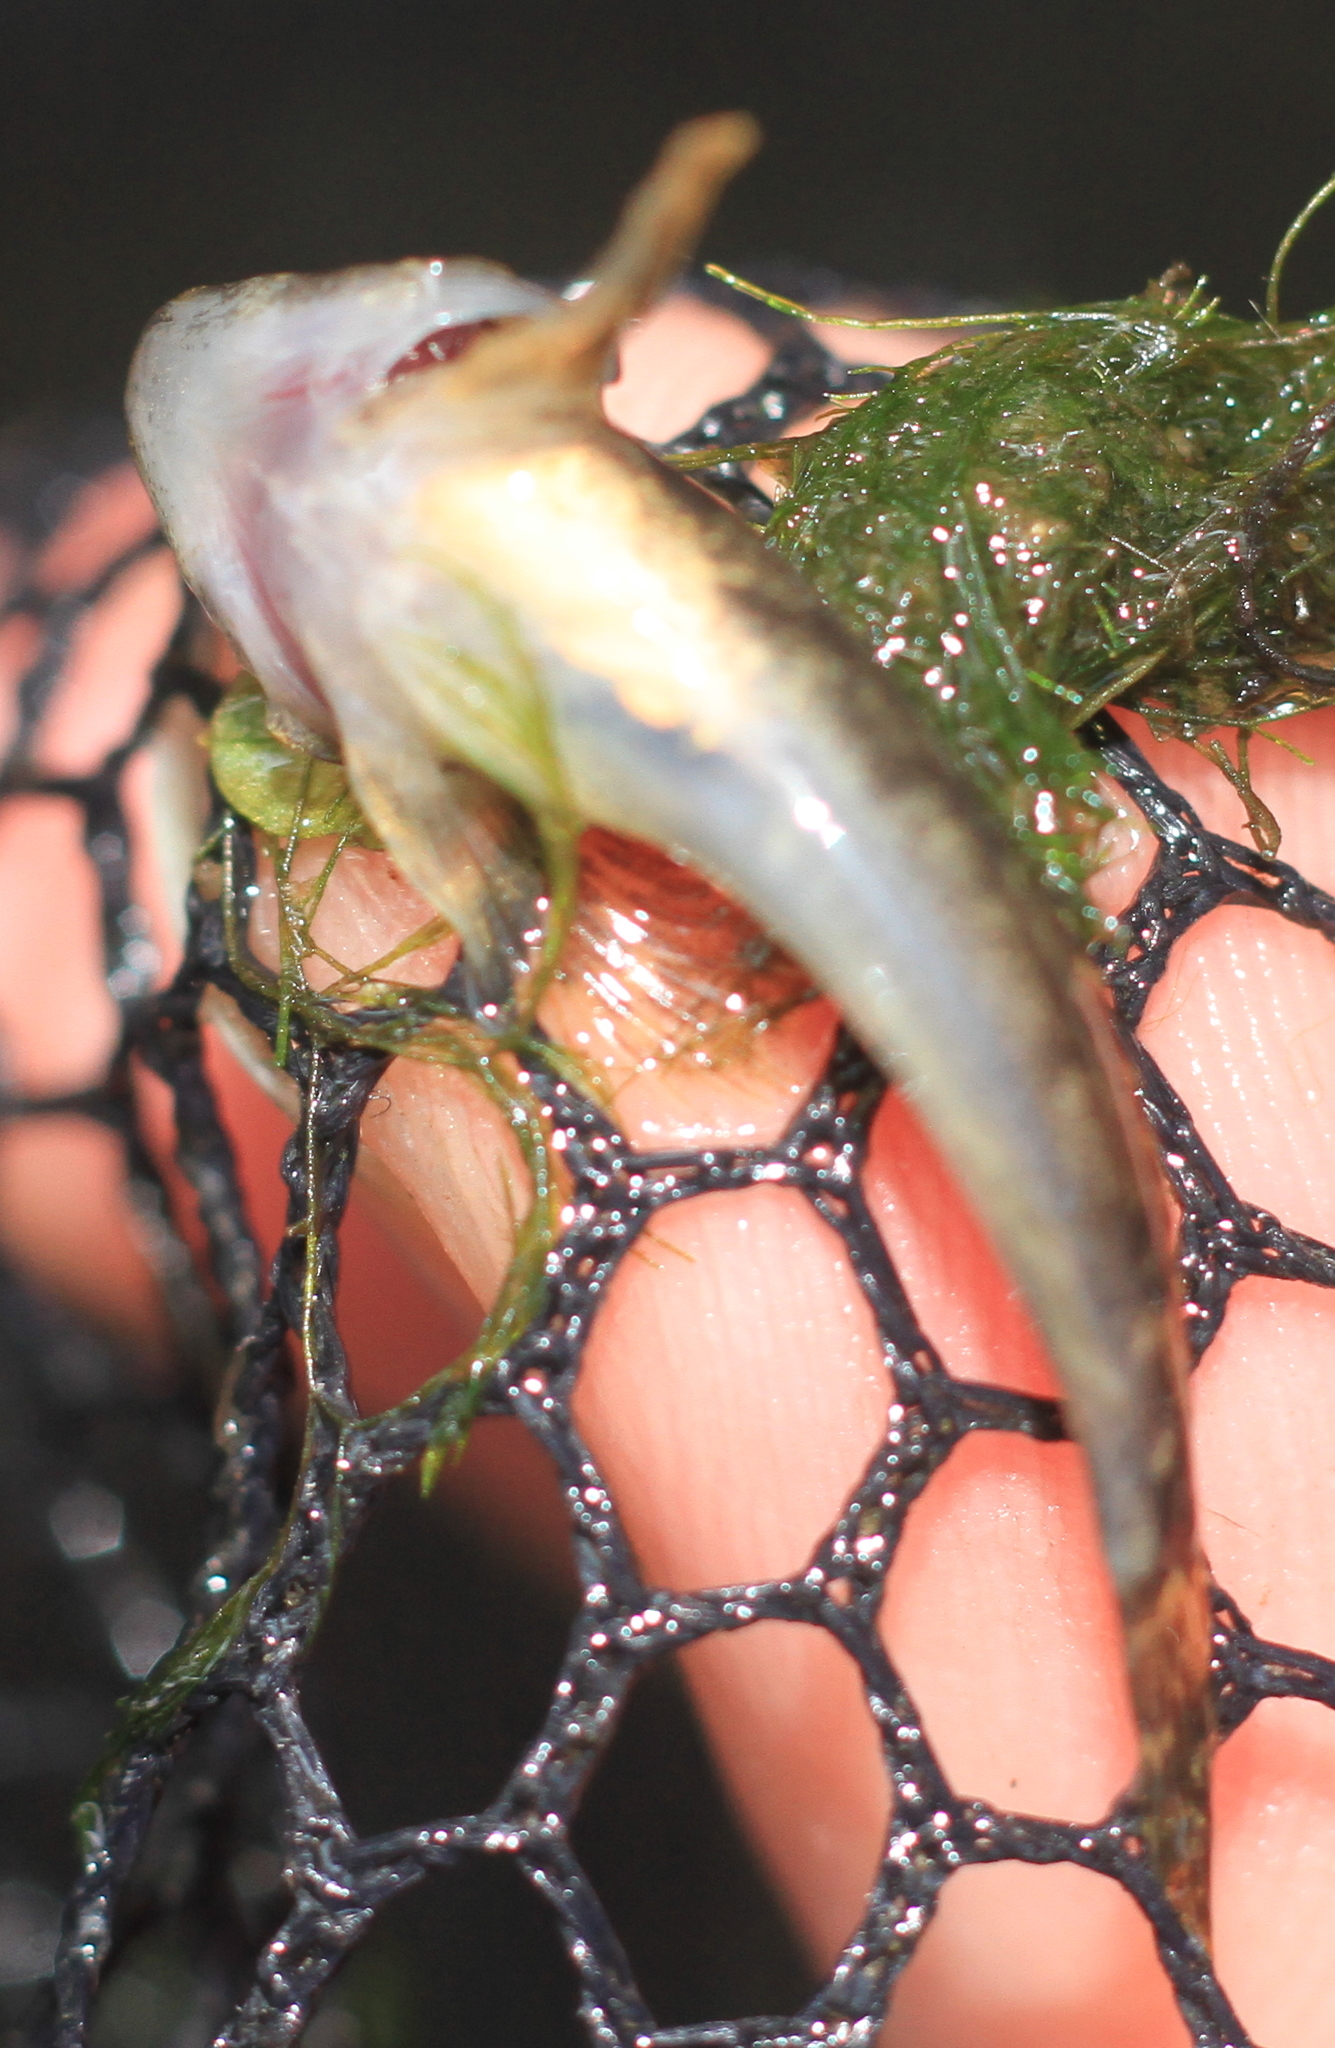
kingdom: Animalia
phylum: Chordata
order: Scorpaeniformes
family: Cottidae
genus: Cottus
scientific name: Cottus
